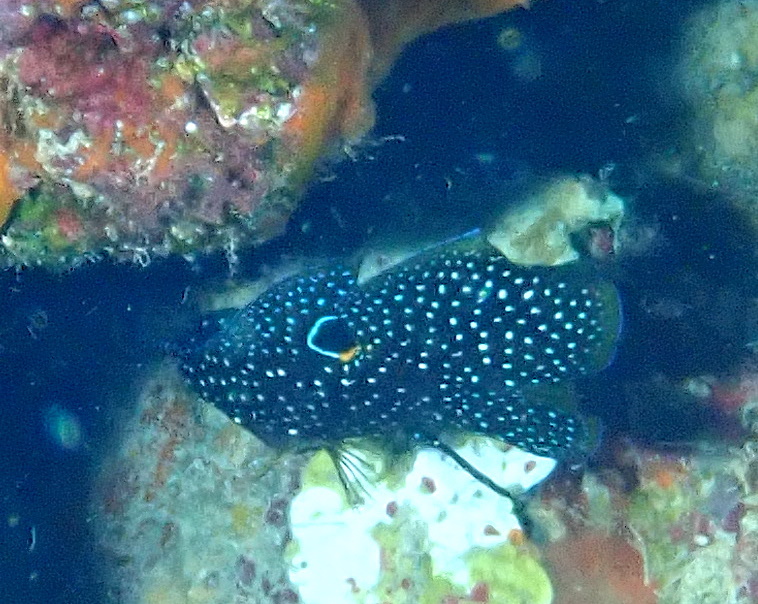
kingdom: Animalia
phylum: Chordata
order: Perciformes
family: Plesiopidae
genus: Calloplesiops
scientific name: Calloplesiops altivelis
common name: Comet
